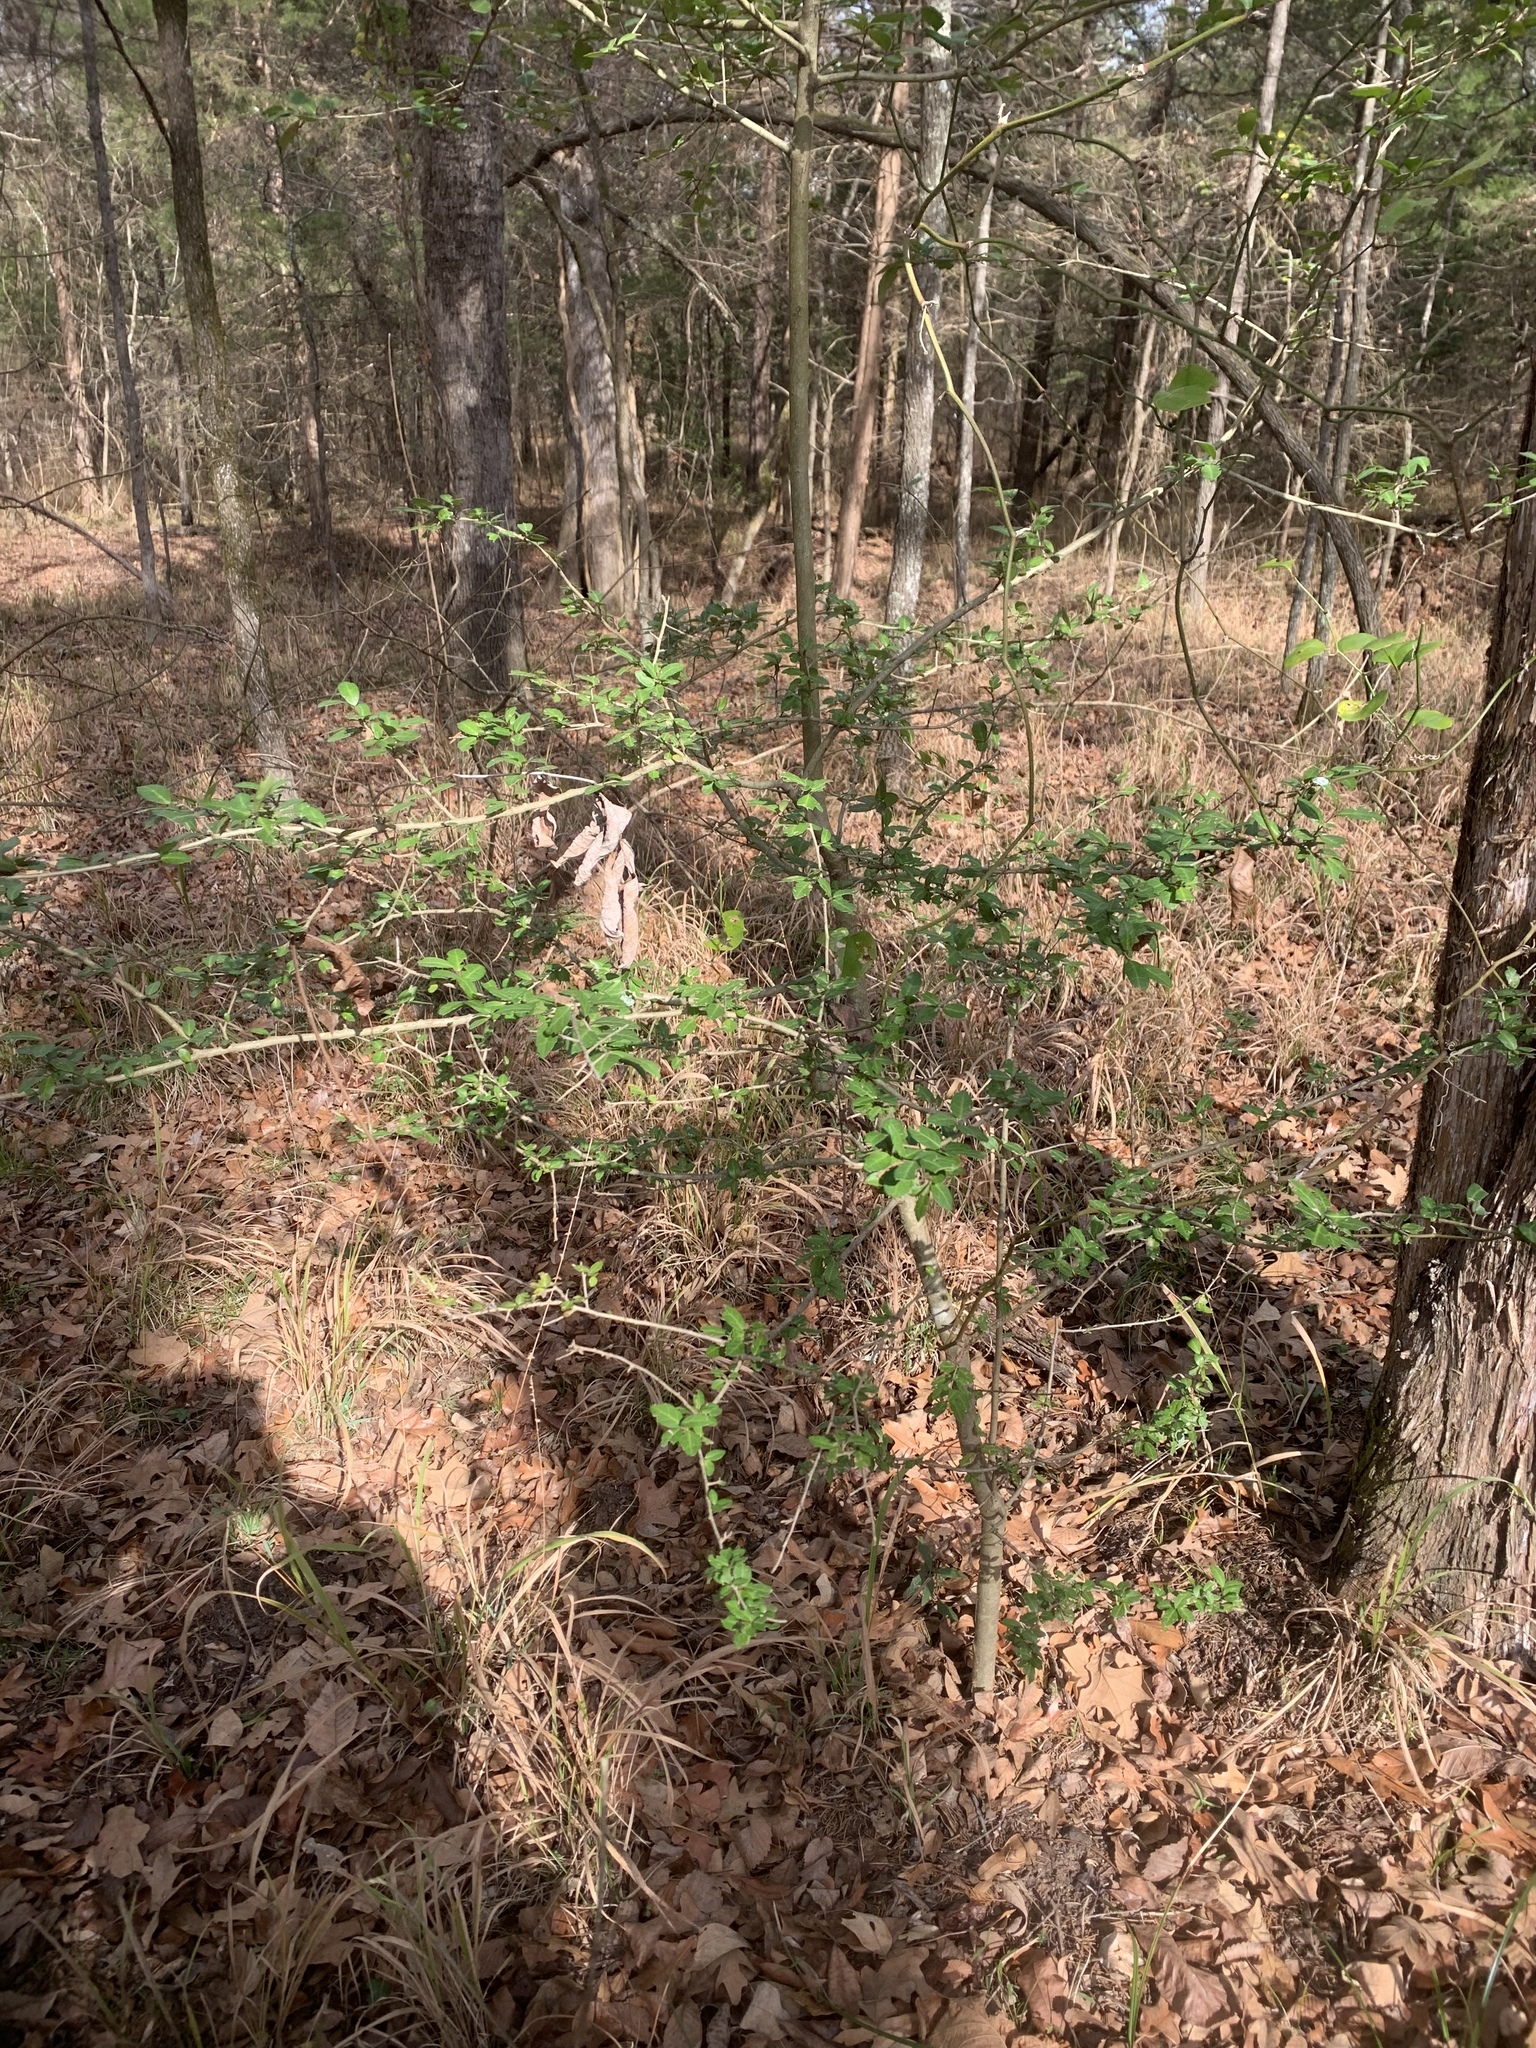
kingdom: Plantae
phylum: Tracheophyta
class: Magnoliopsida
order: Aquifoliales
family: Aquifoliaceae
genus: Ilex
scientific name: Ilex vomitoria
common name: Yaupon holly
